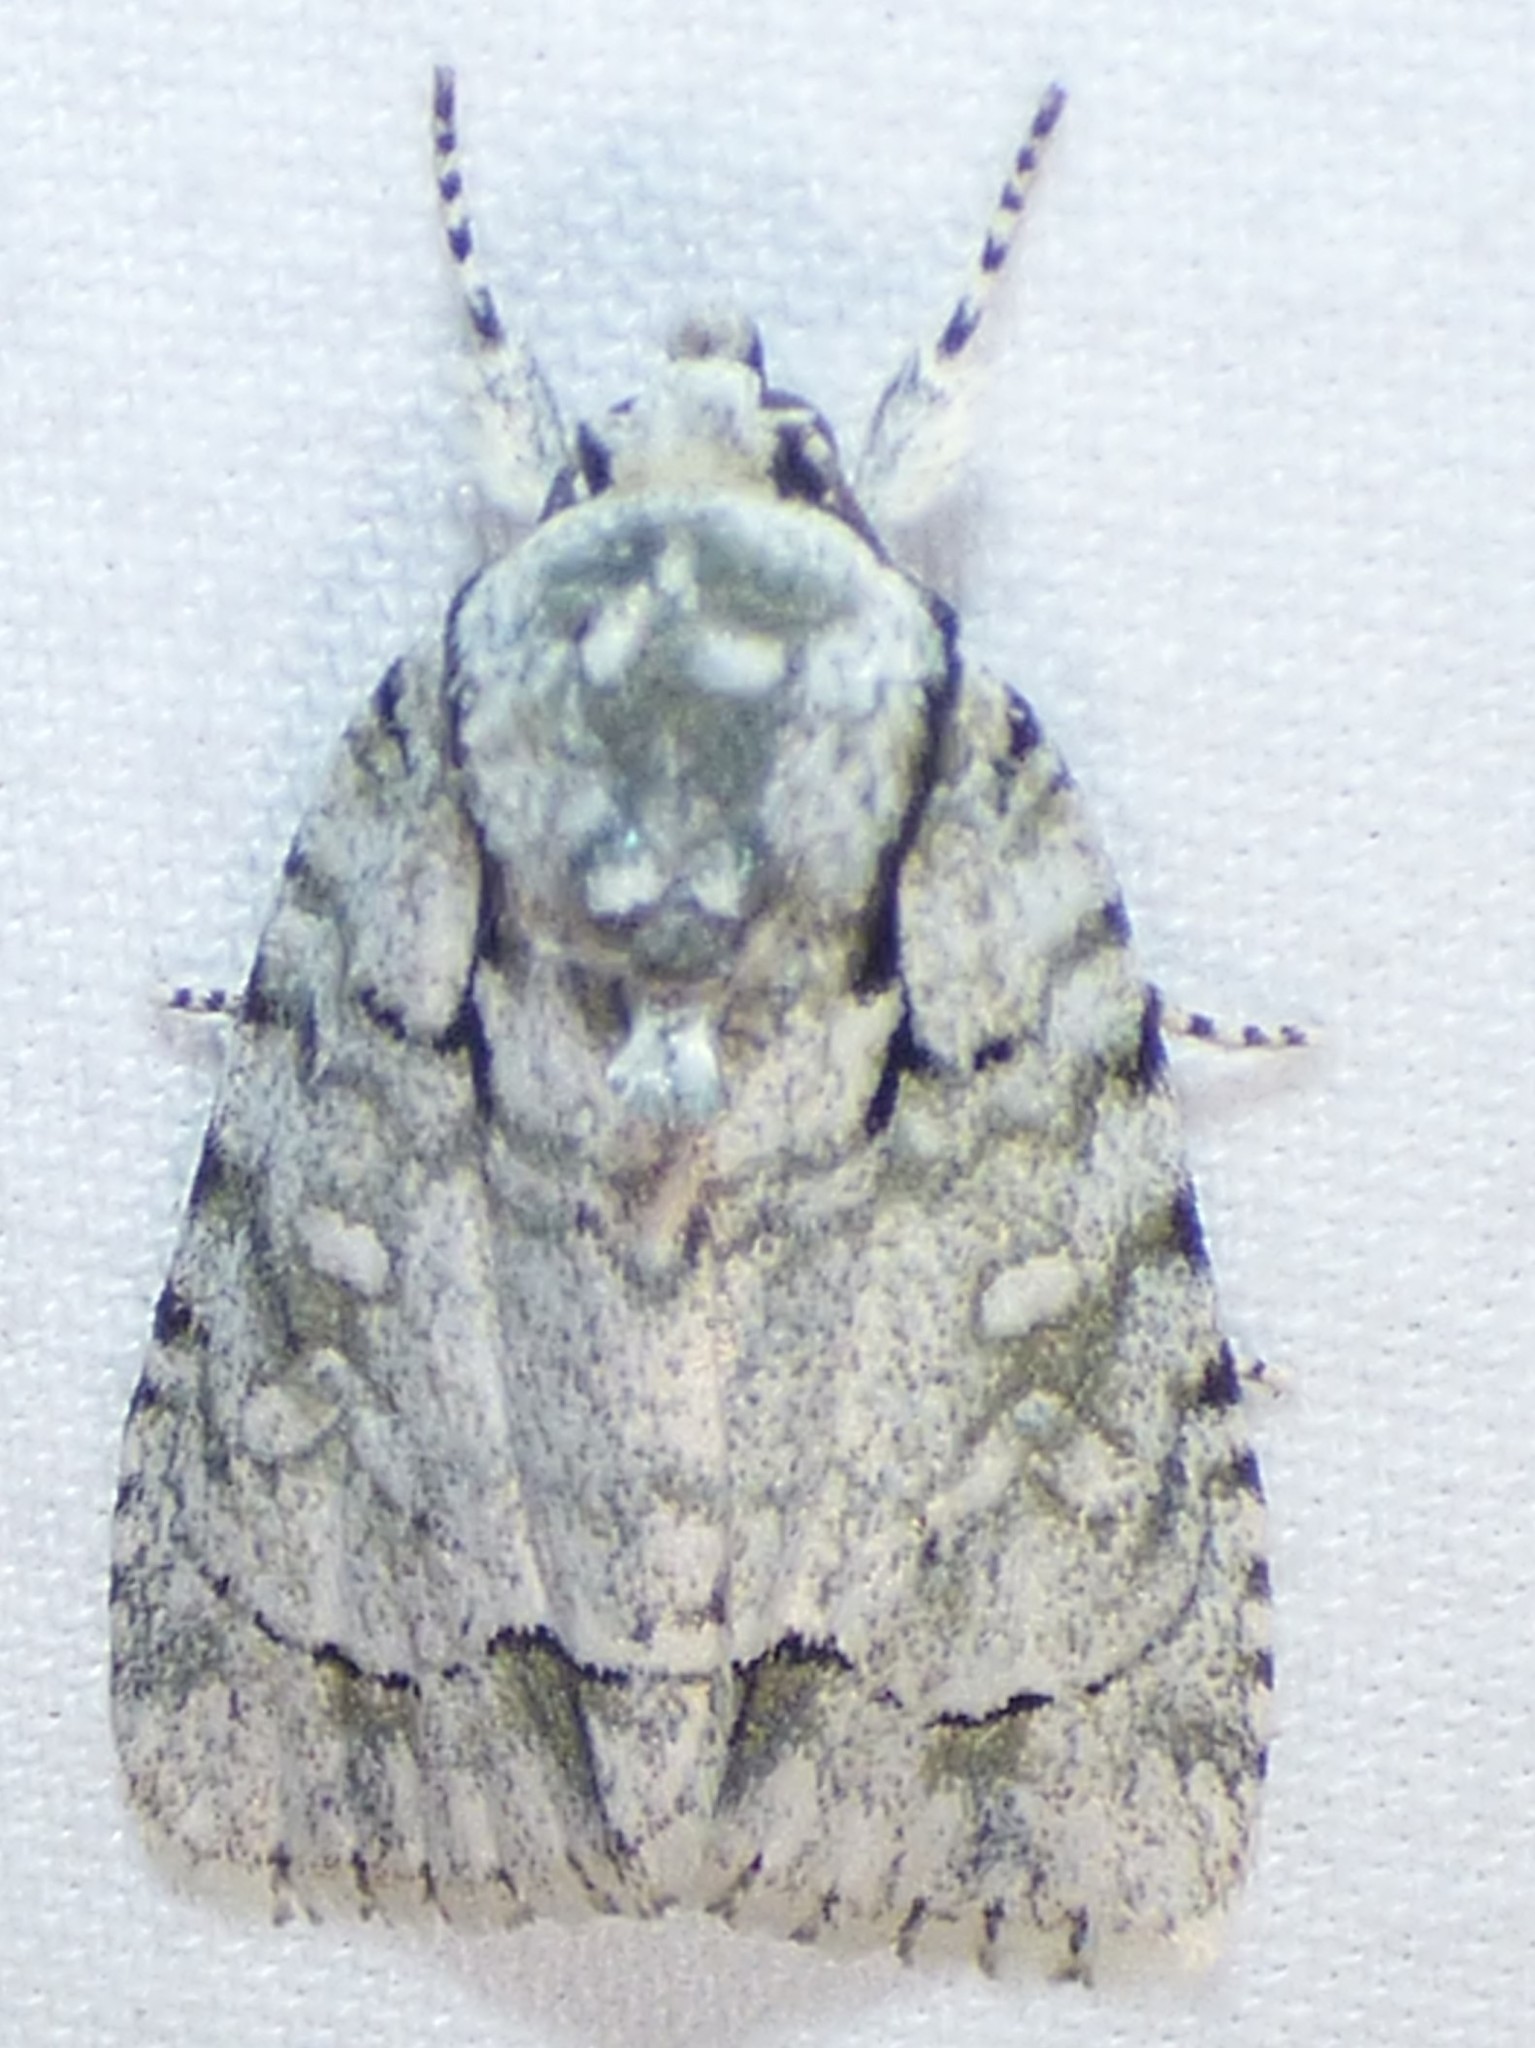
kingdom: Animalia
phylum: Arthropoda
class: Insecta
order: Lepidoptera
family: Noctuidae
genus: Acronicta
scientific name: Acronicta vinnula
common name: Delightful dagger
